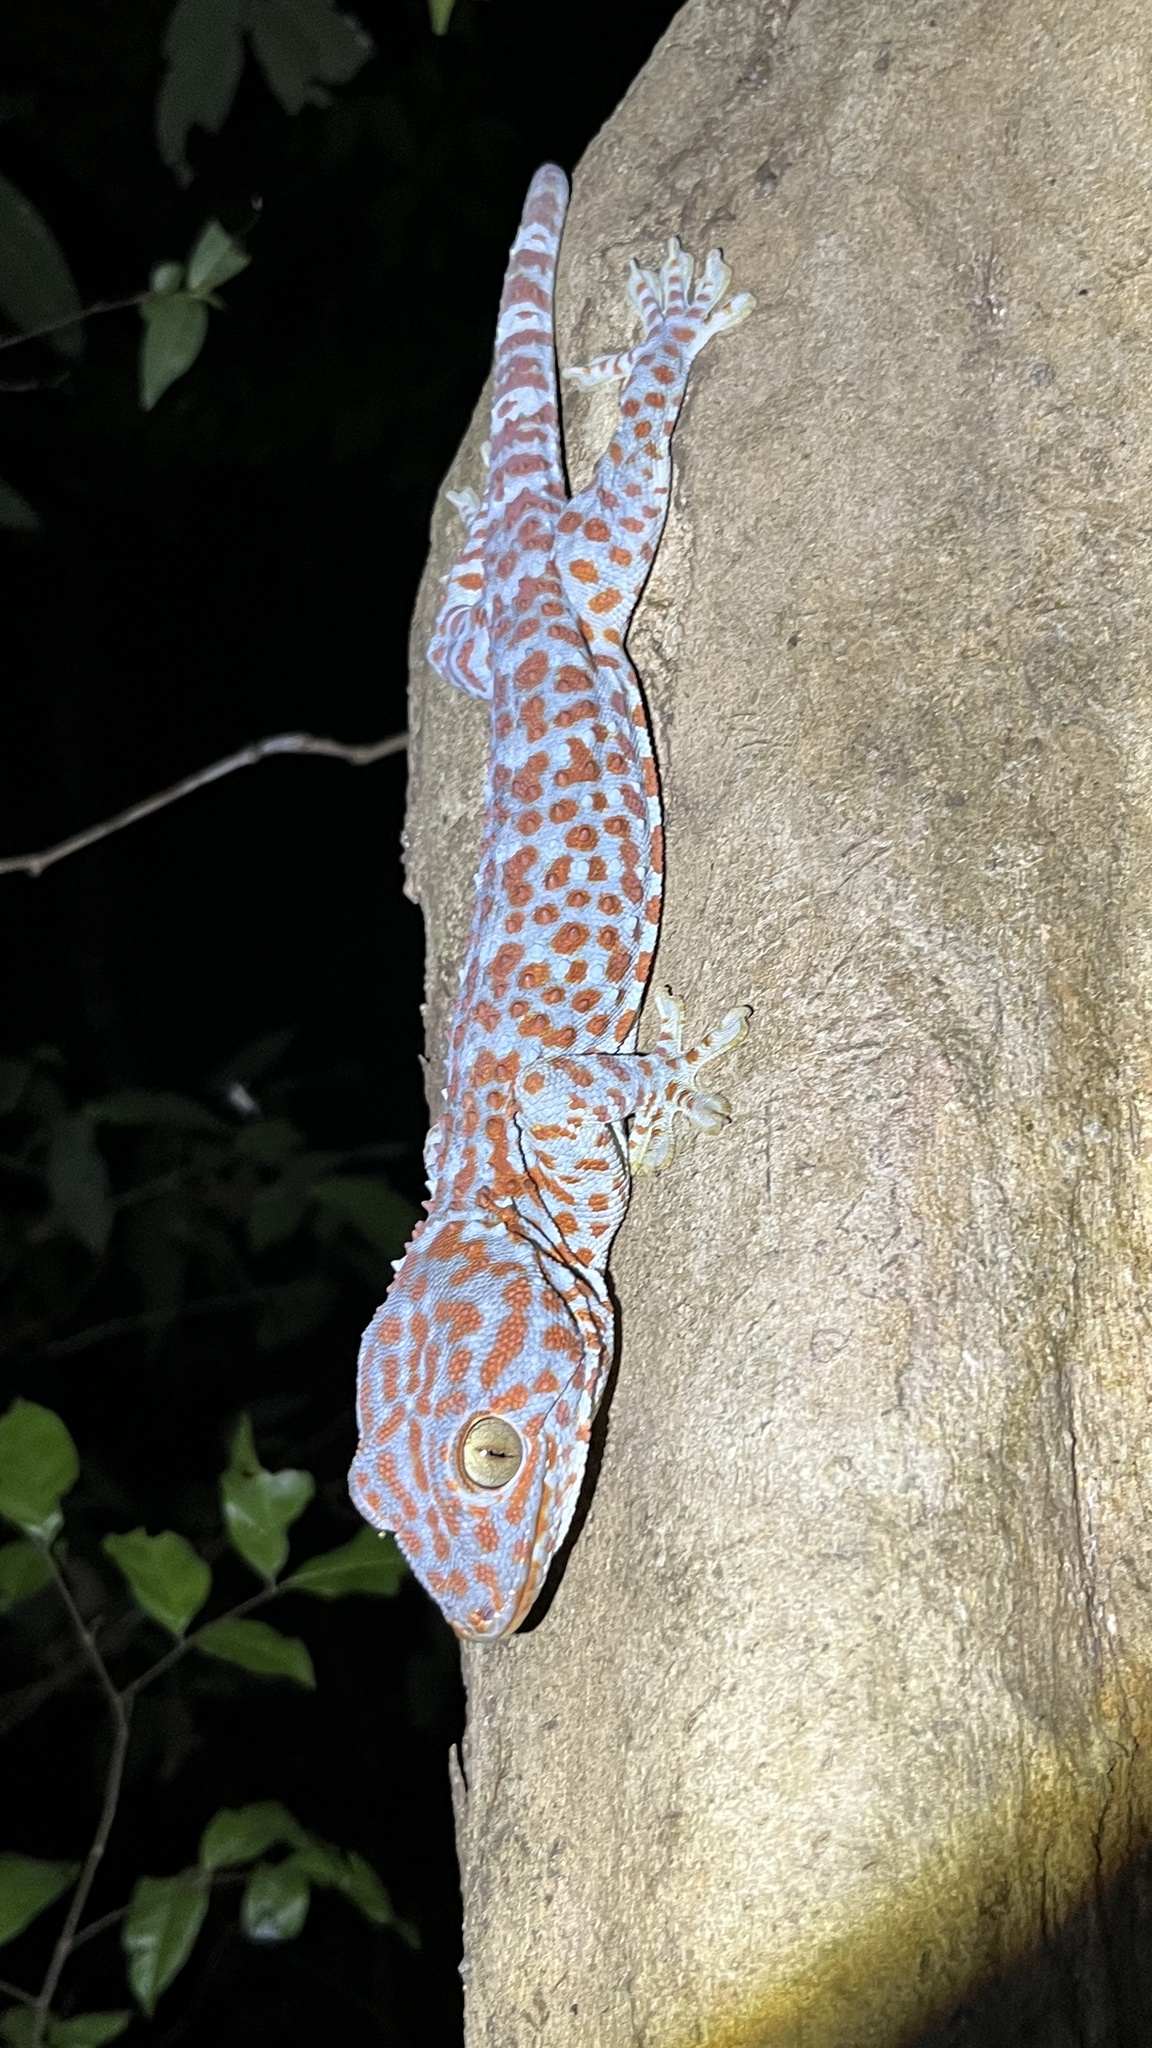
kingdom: Animalia
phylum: Chordata
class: Squamata
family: Gekkonidae
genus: Gekko
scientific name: Gekko gecko
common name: Tokay gecko
